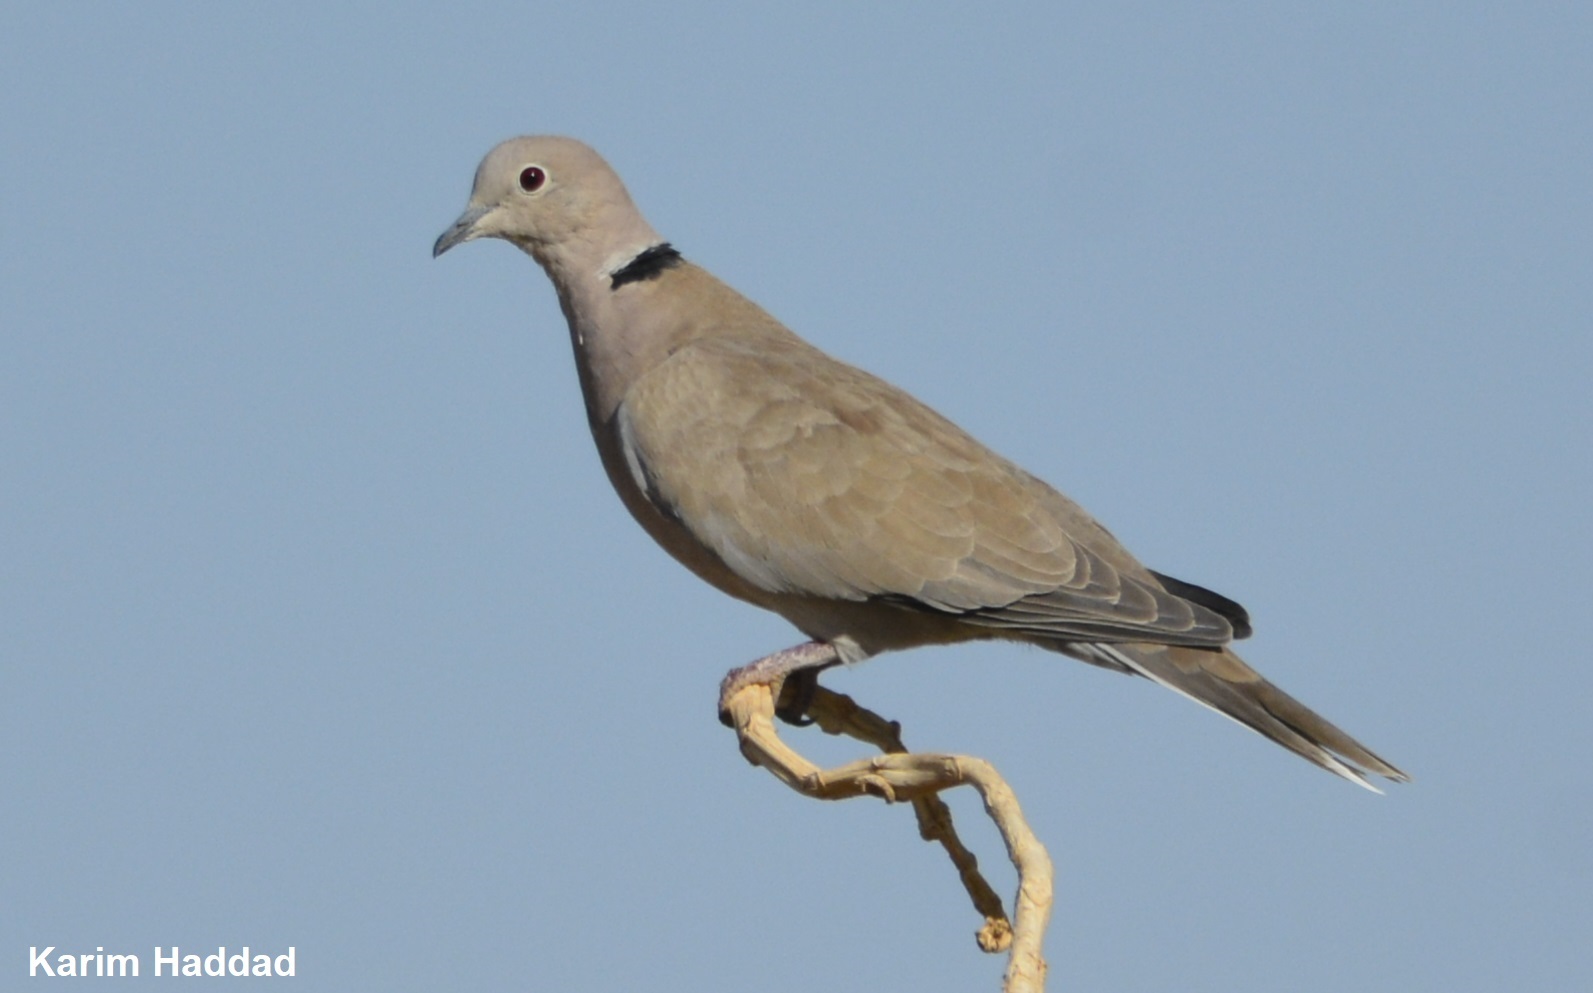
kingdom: Animalia
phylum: Chordata
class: Aves
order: Columbiformes
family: Columbidae
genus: Streptopelia
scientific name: Streptopelia roseogrisea
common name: African collared dove
